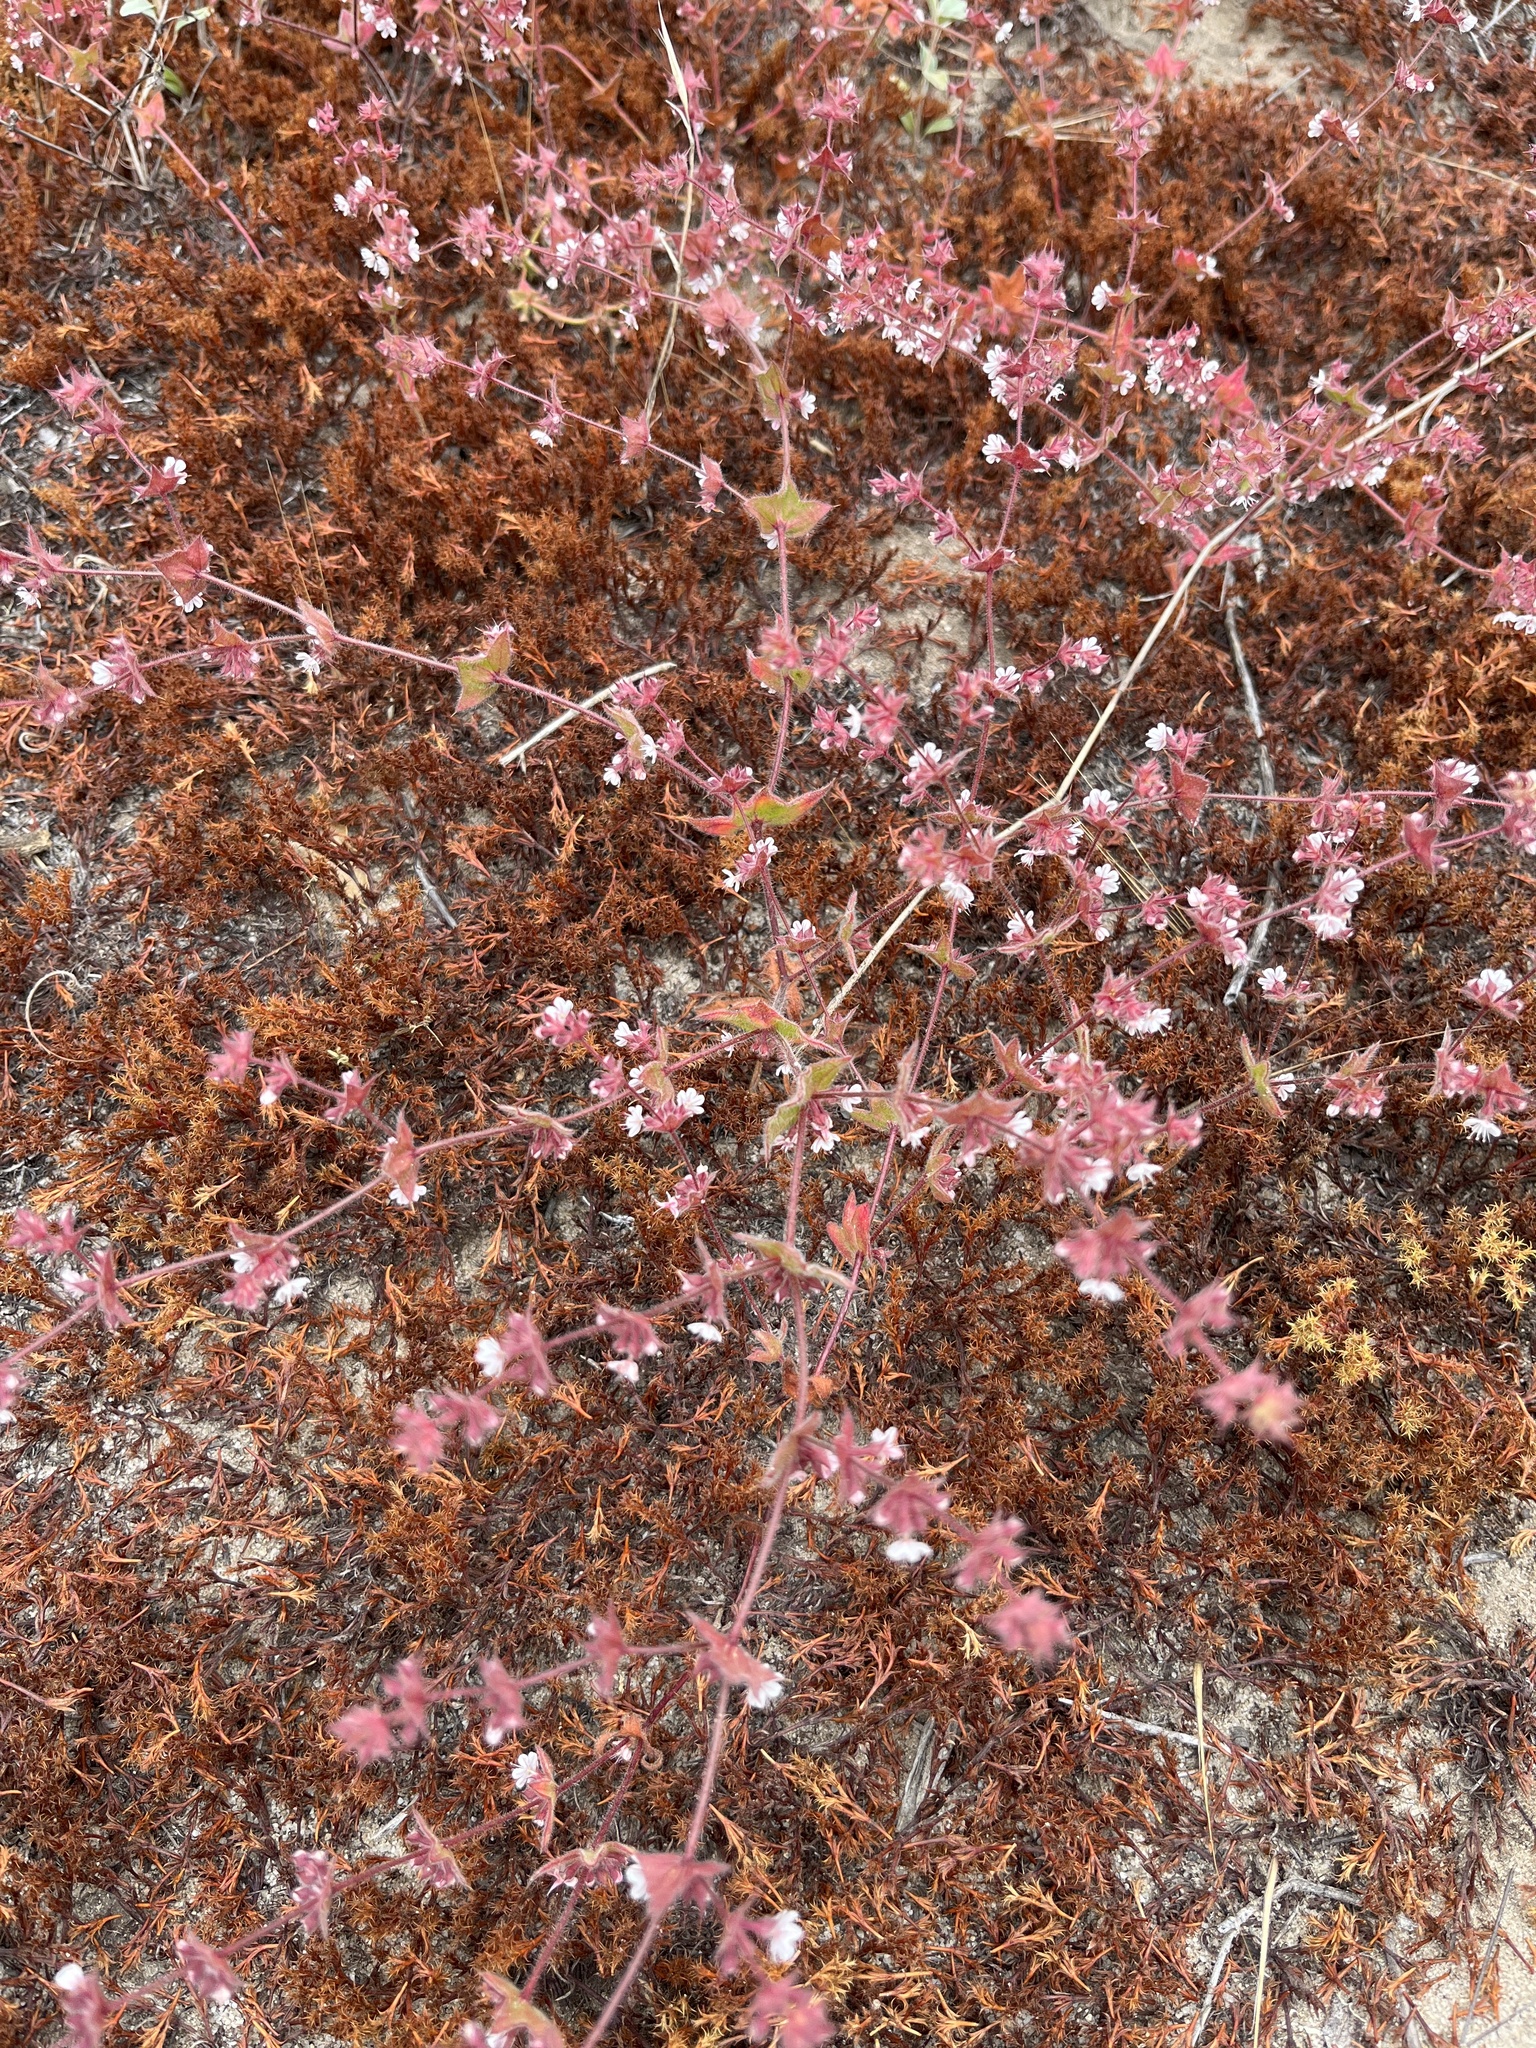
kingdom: Plantae
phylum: Tracheophyta
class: Magnoliopsida
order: Caryophyllales
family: Polygonaceae
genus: Mucronea
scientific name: Mucronea californica
